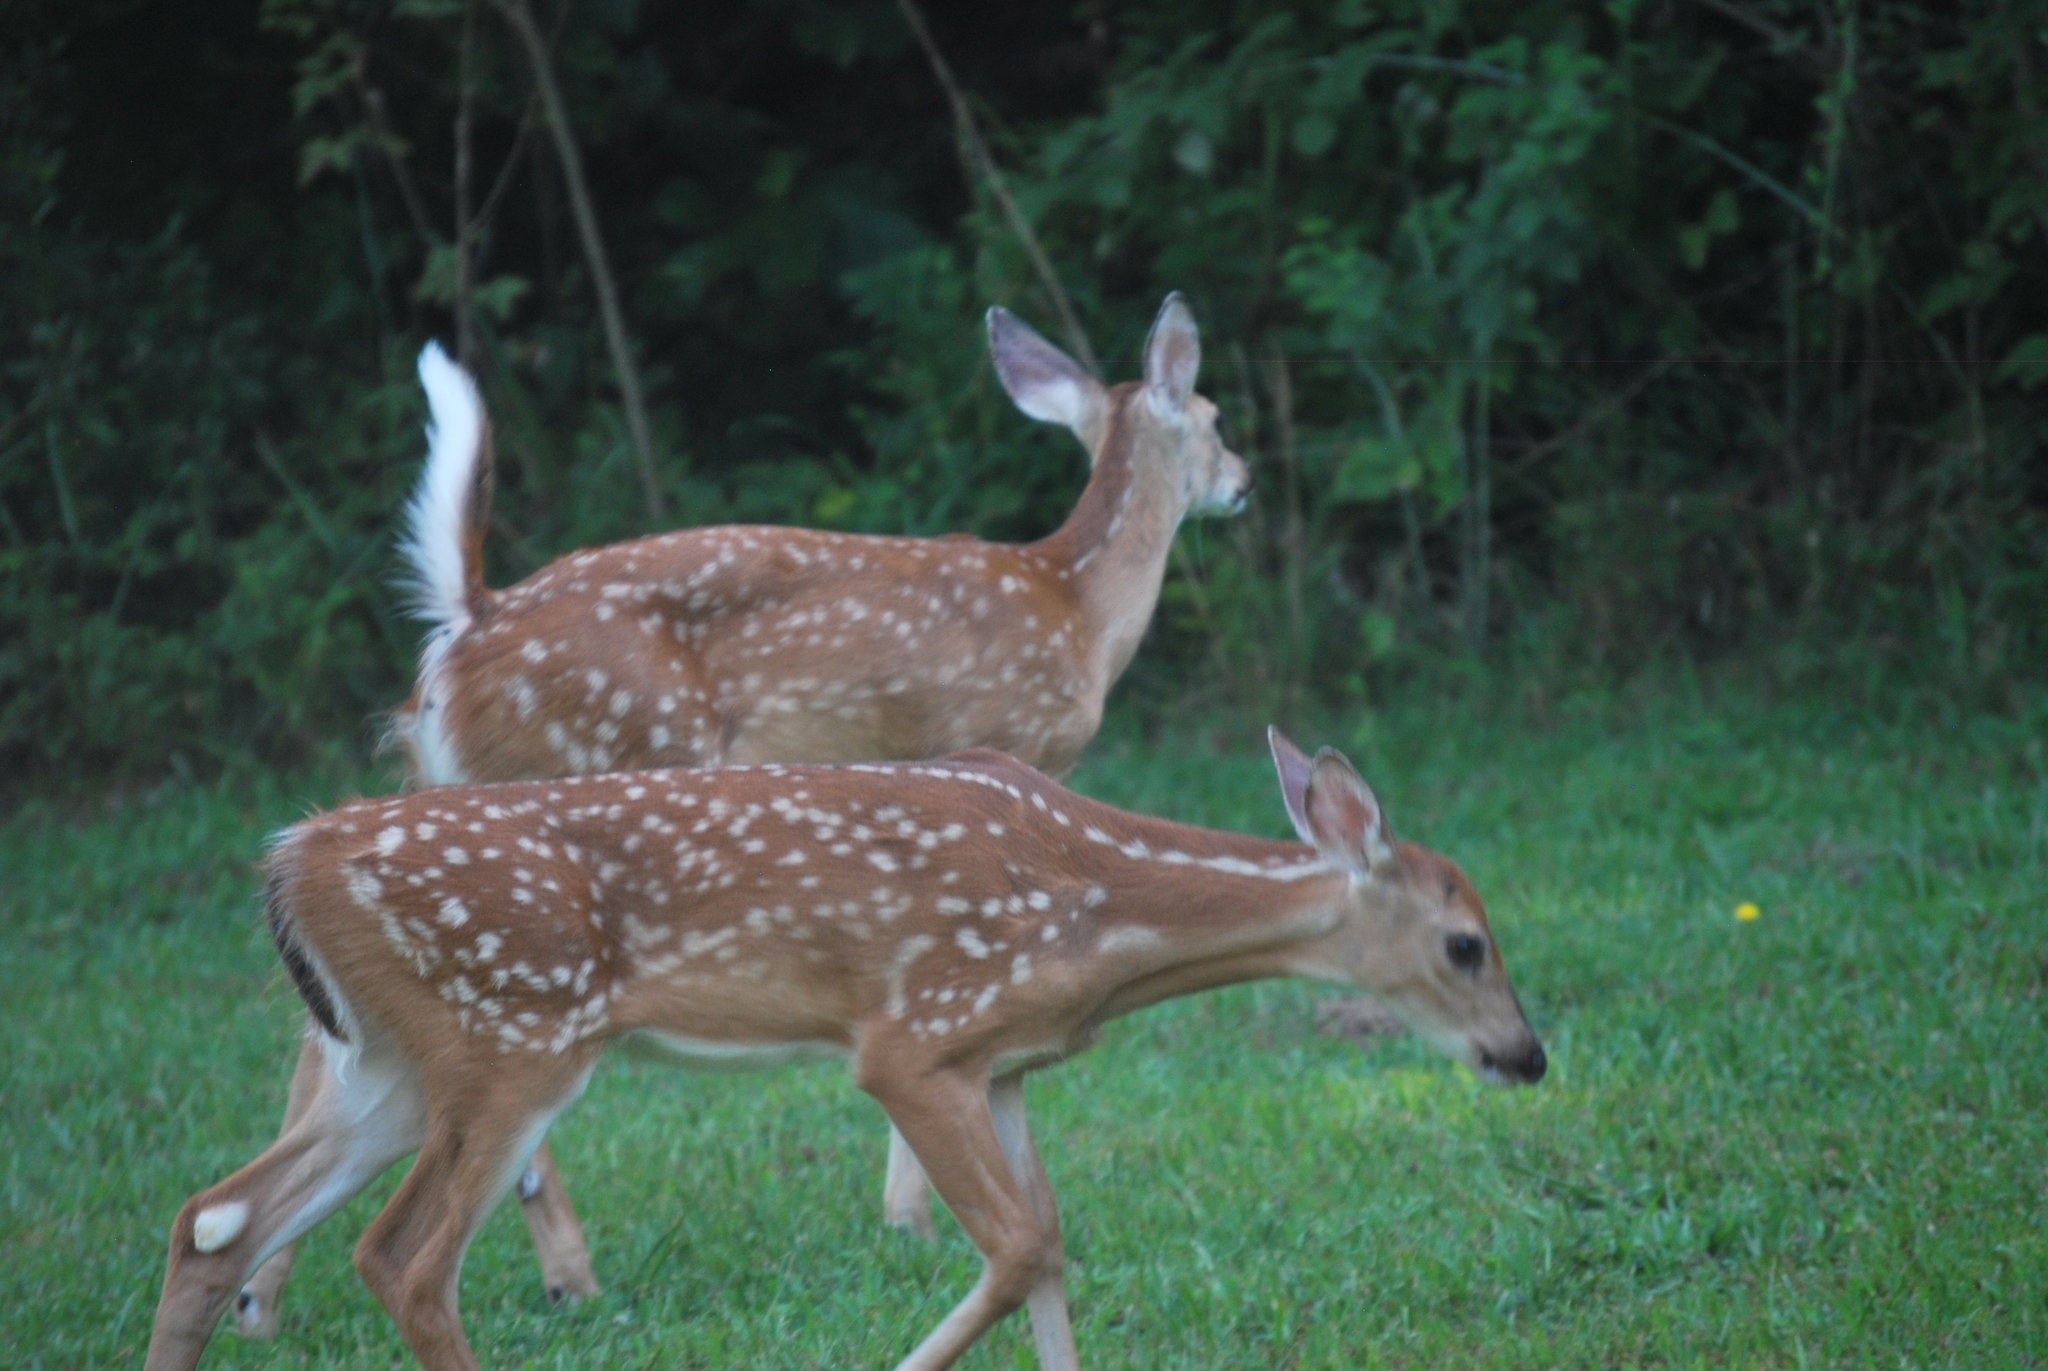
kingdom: Animalia
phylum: Chordata
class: Mammalia
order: Artiodactyla
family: Cervidae
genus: Odocoileus
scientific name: Odocoileus virginianus
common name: White-tailed deer
